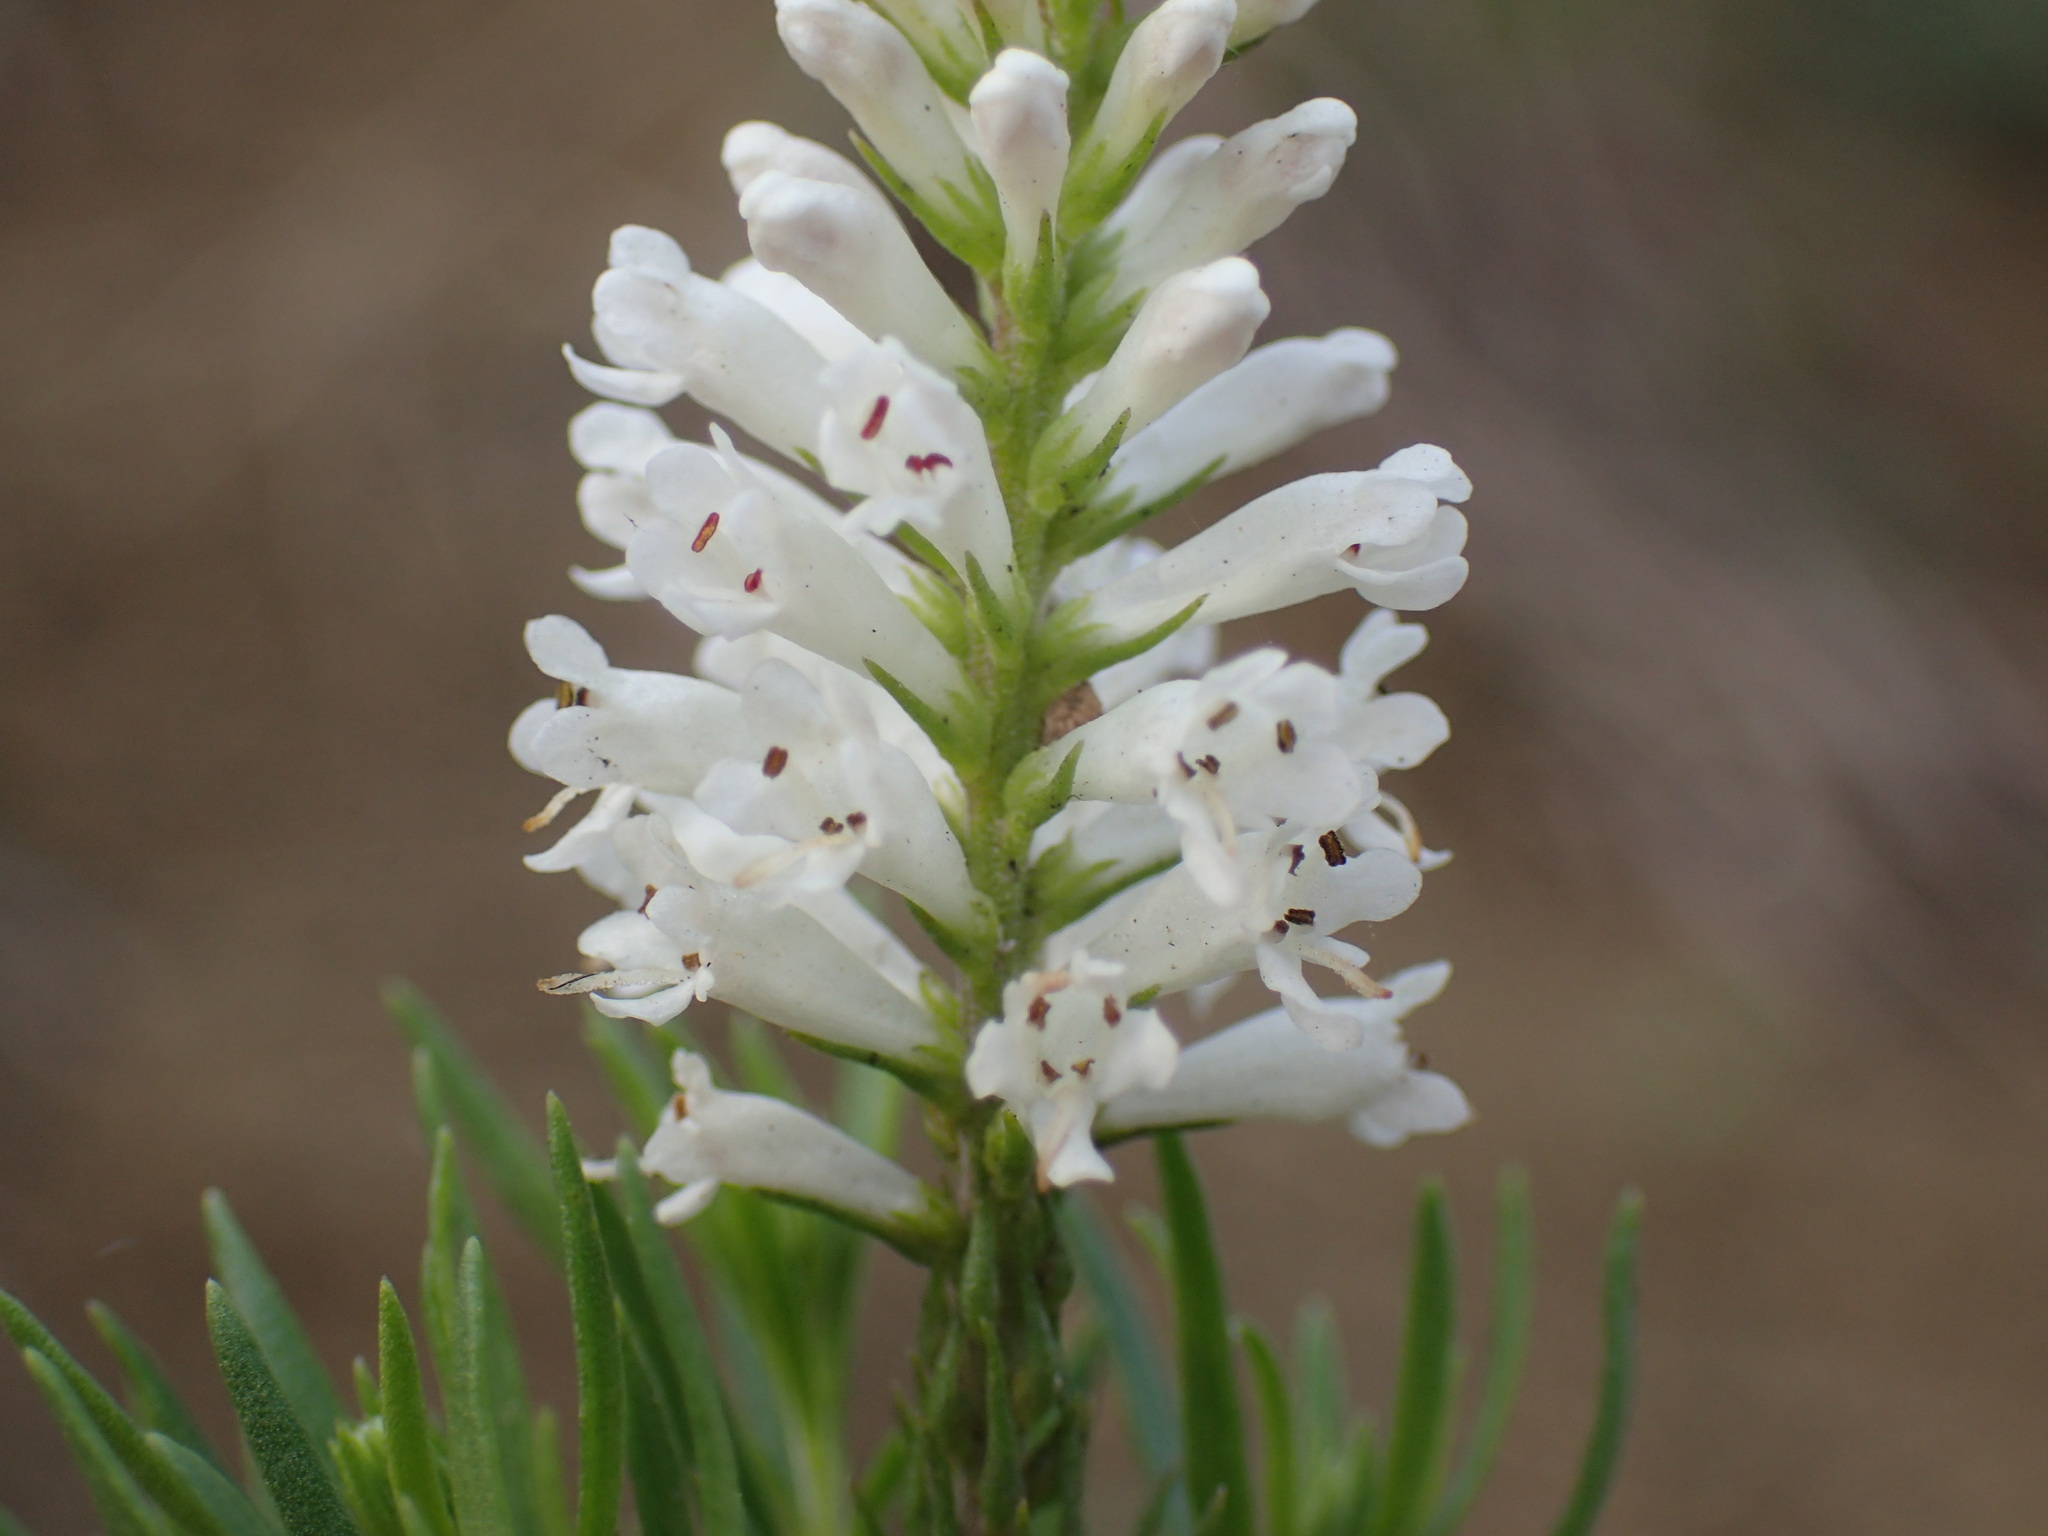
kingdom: Plantae
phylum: Tracheophyta
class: Magnoliopsida
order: Lamiales
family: Scrophulariaceae
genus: Selago
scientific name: Selago elongata
